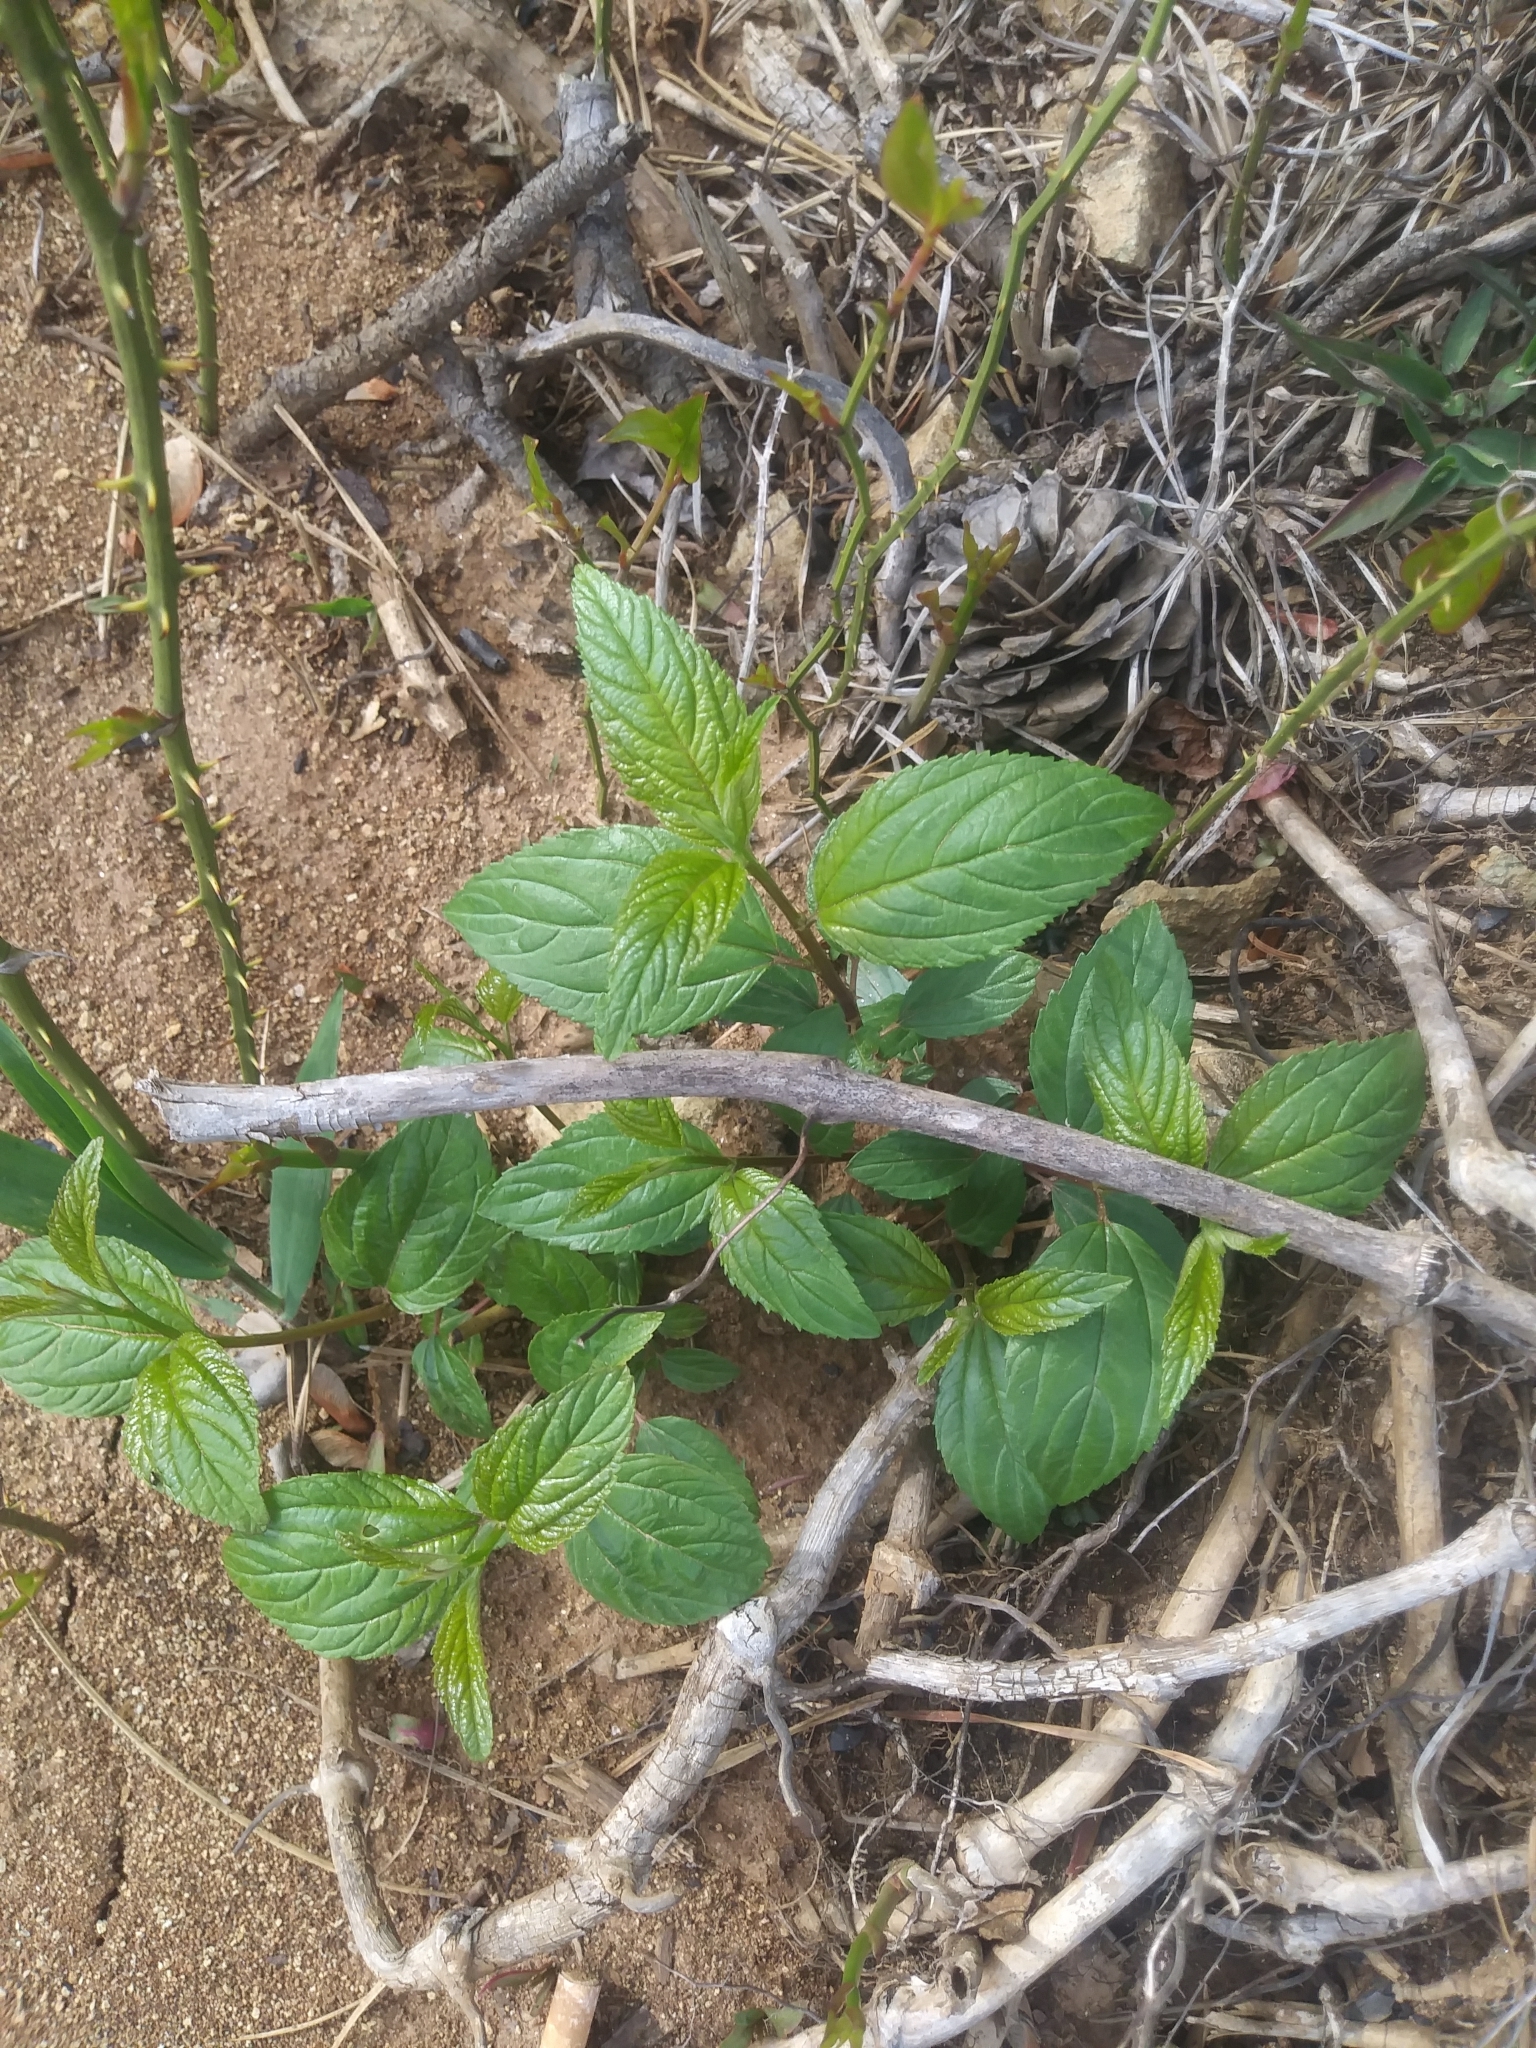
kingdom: Plantae
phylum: Tracheophyta
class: Magnoliopsida
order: Rosales
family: Rhamnaceae
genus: Ceanothus
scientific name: Ceanothus americanus
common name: Redroot
